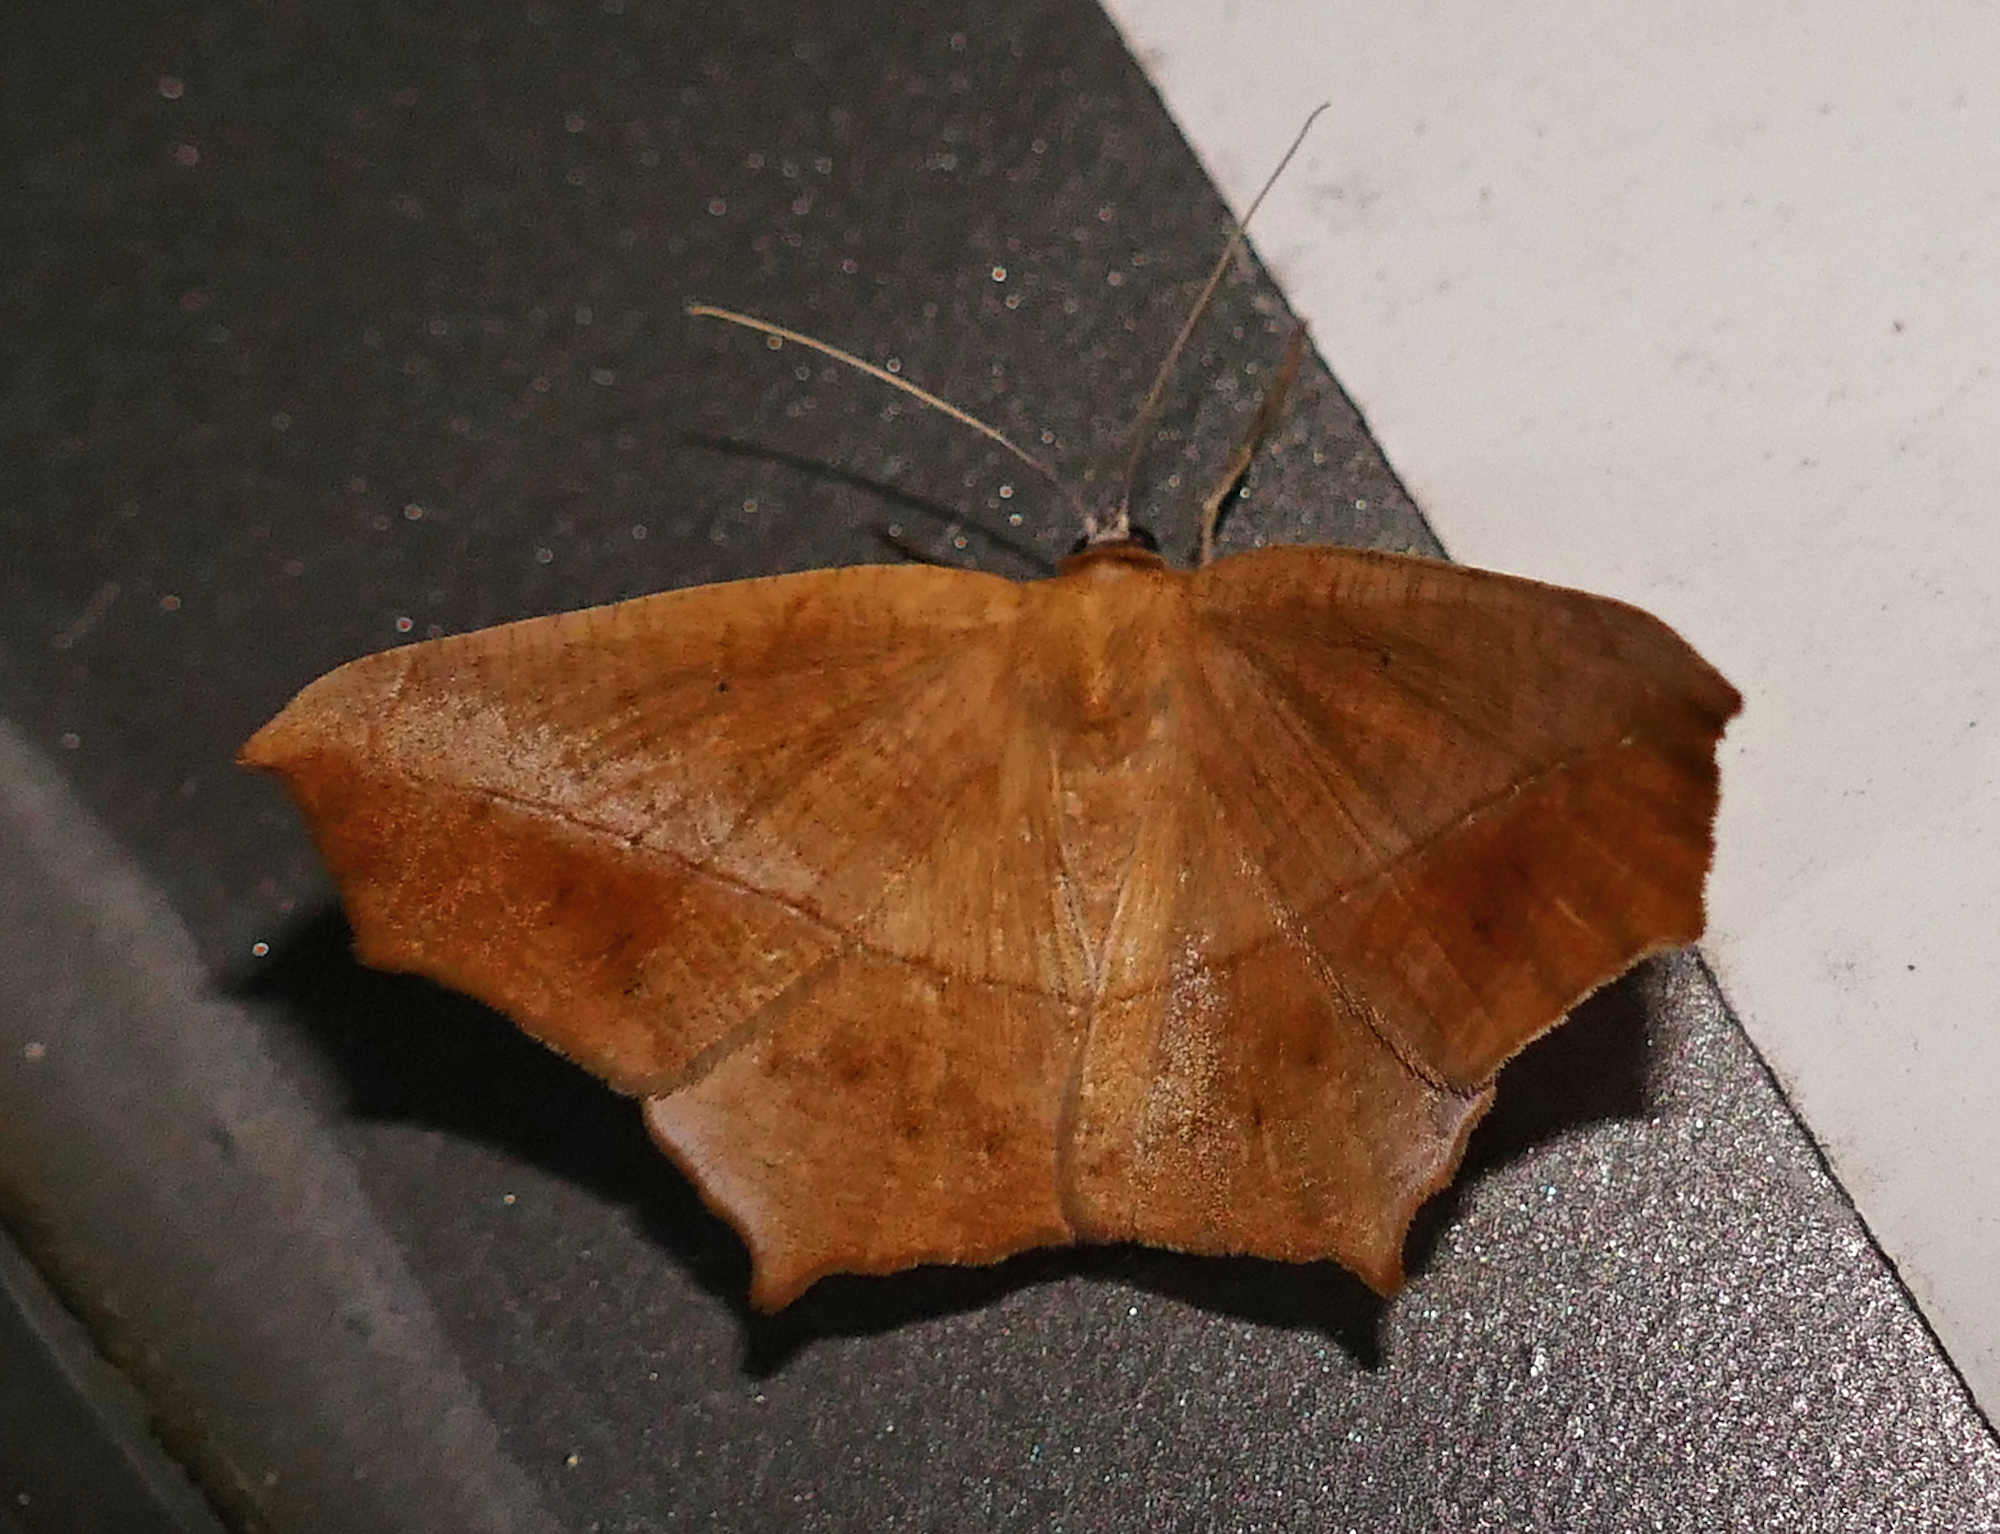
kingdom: Animalia
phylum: Arthropoda
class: Insecta
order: Lepidoptera
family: Geometridae
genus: Prochoerodes
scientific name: Prochoerodes lineola
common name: Large maple spanworm
